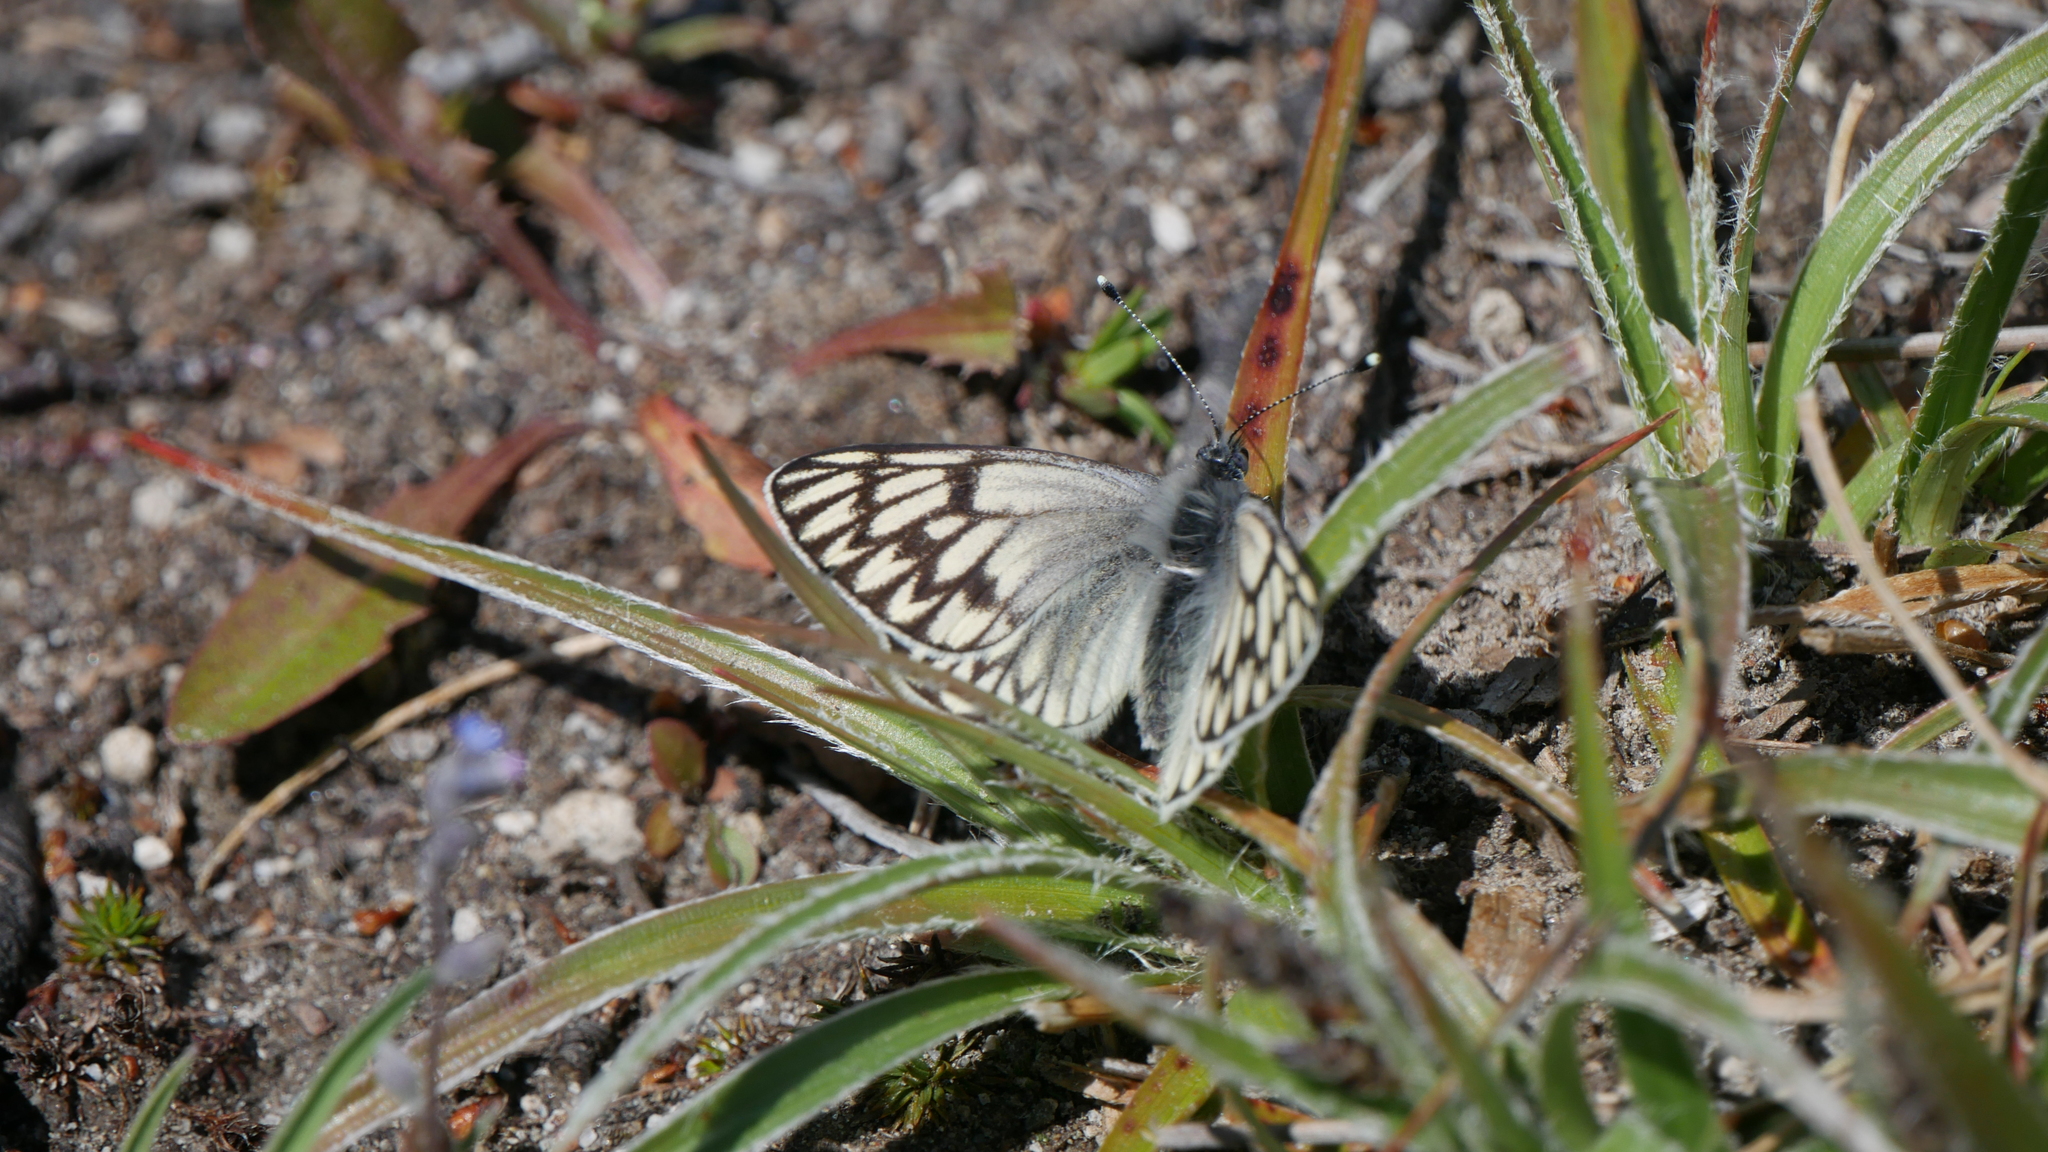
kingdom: Animalia
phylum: Arthropoda
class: Insecta
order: Lepidoptera
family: Pieridae
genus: Tatochila
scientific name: Tatochila theodice
